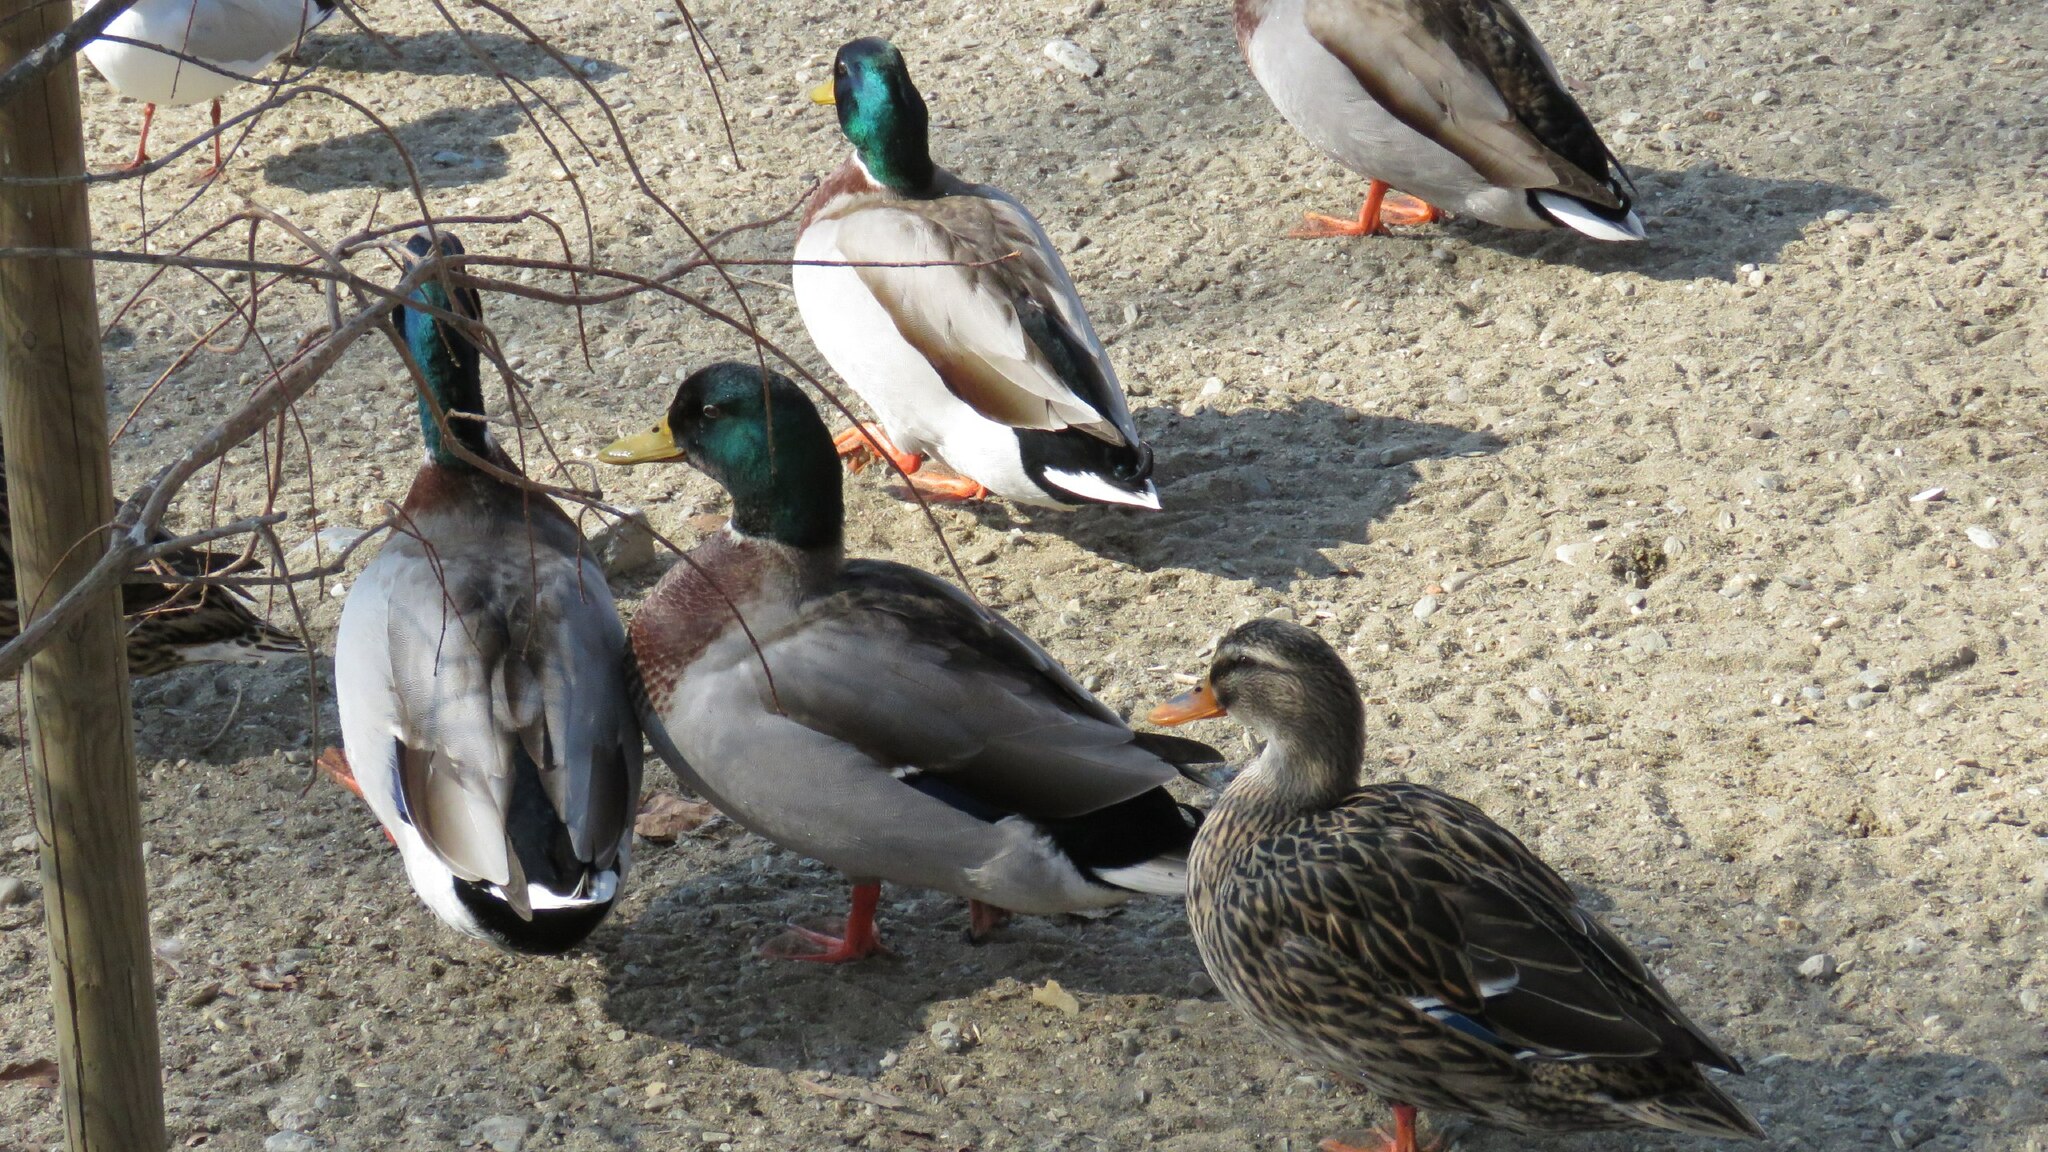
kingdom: Animalia
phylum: Chordata
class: Aves
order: Anseriformes
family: Anatidae
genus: Anas
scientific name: Anas platyrhynchos
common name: Mallard
